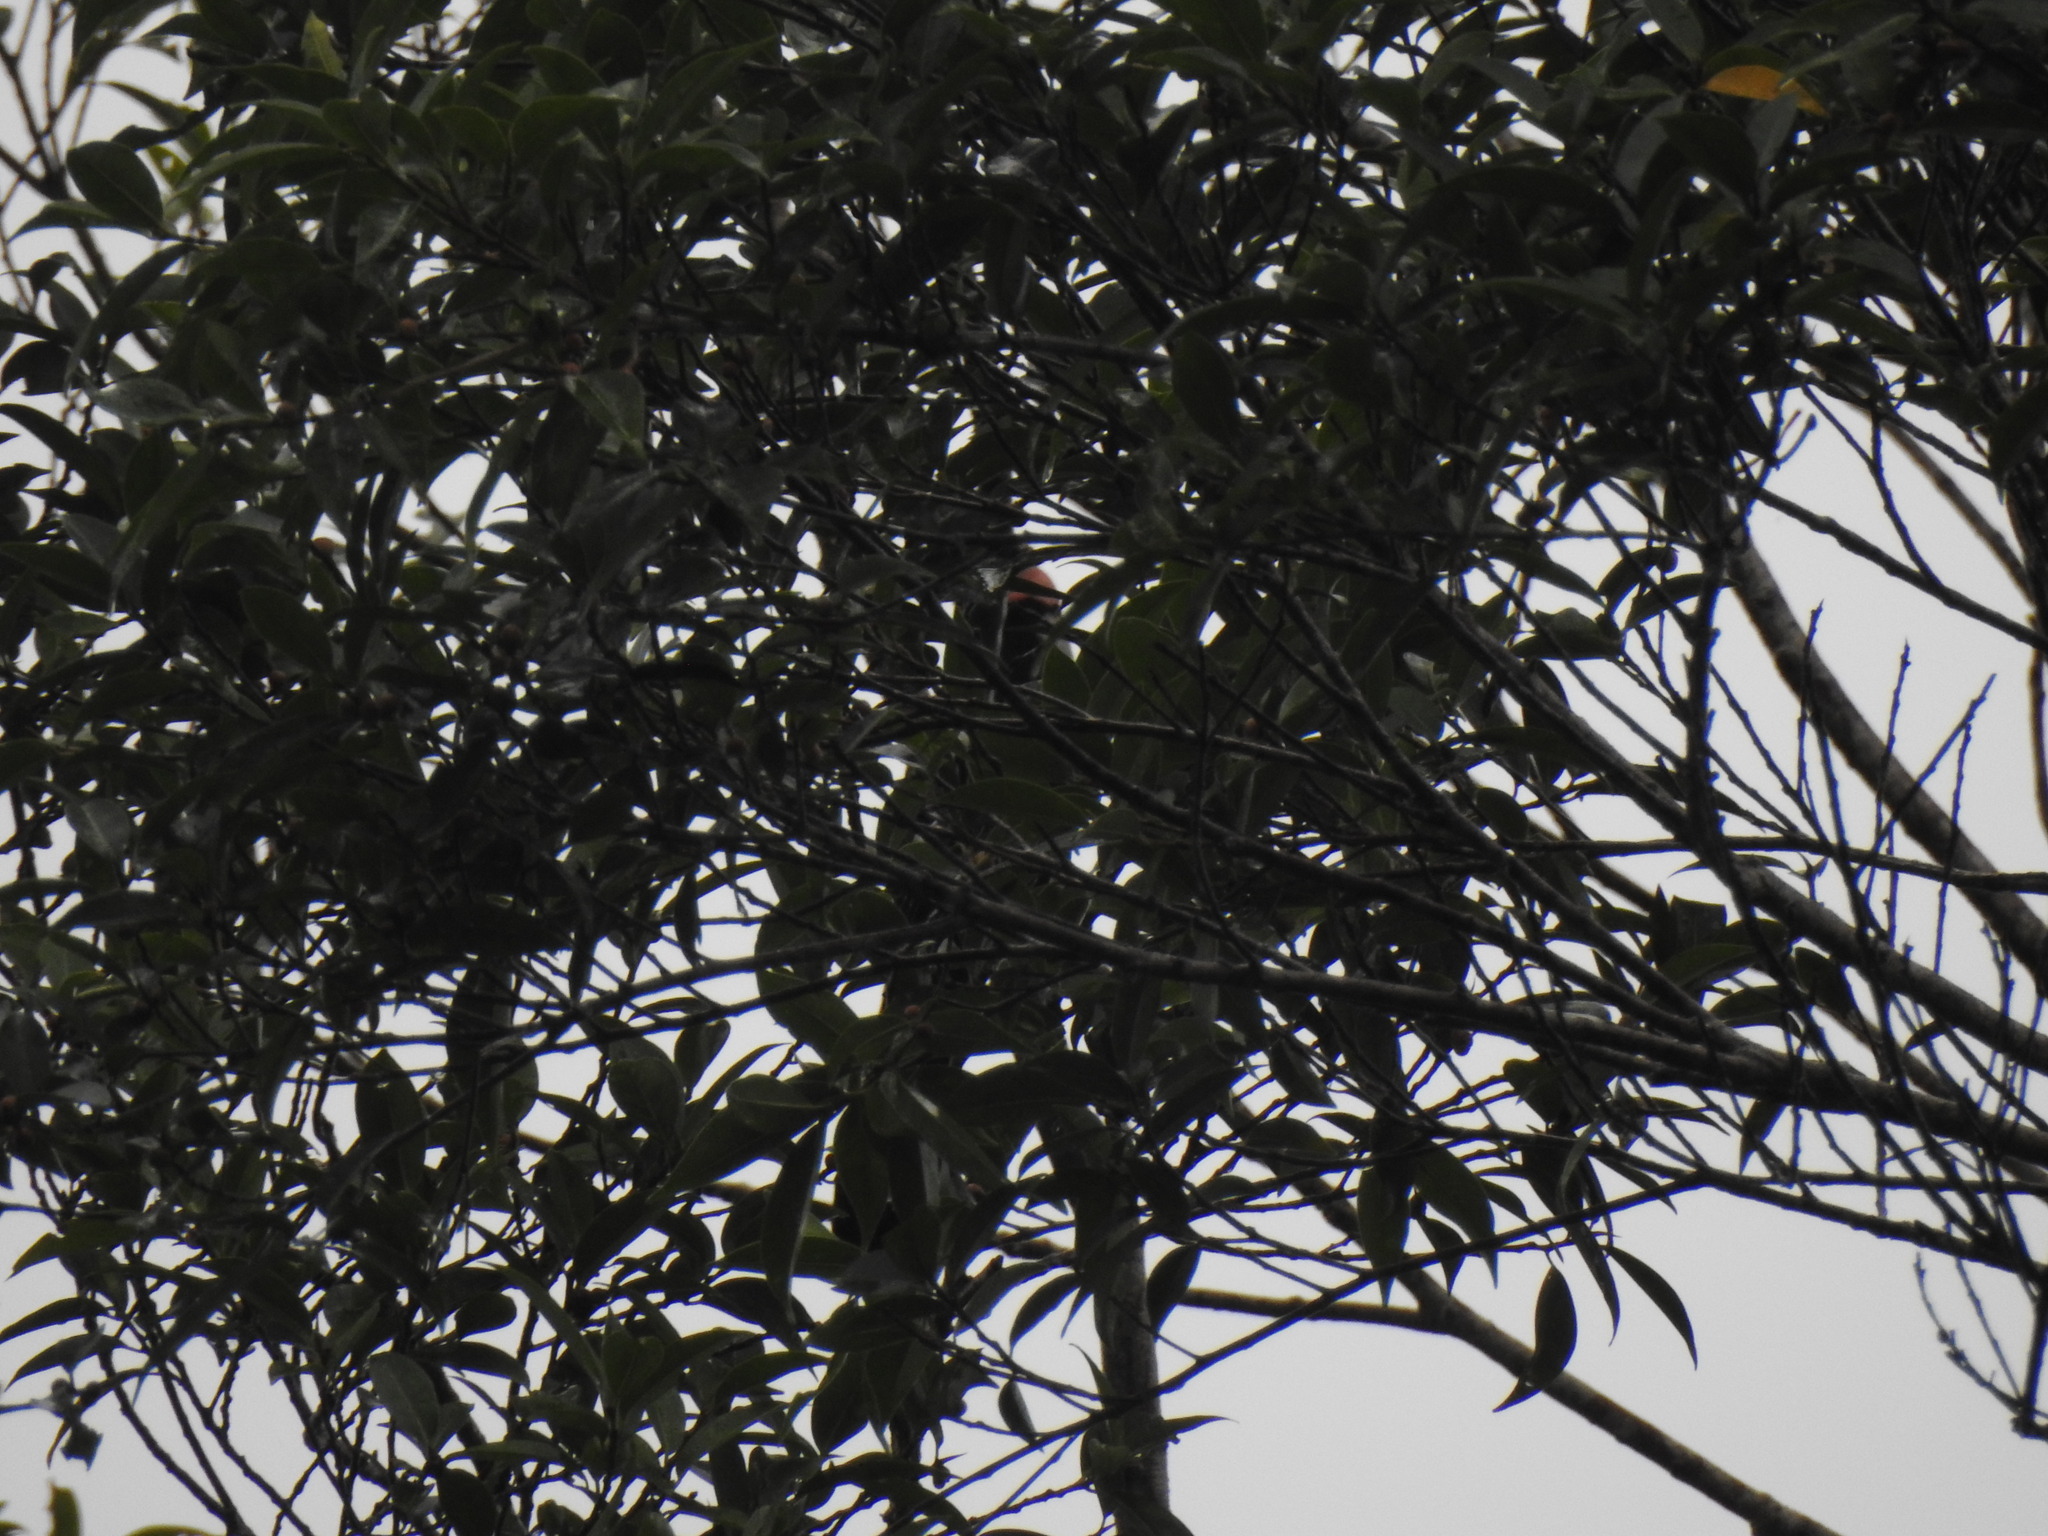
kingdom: Animalia
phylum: Chordata
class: Aves
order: Passeriformes
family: Sturnidae
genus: Sarcops
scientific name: Sarcops calvus
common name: Coleto
